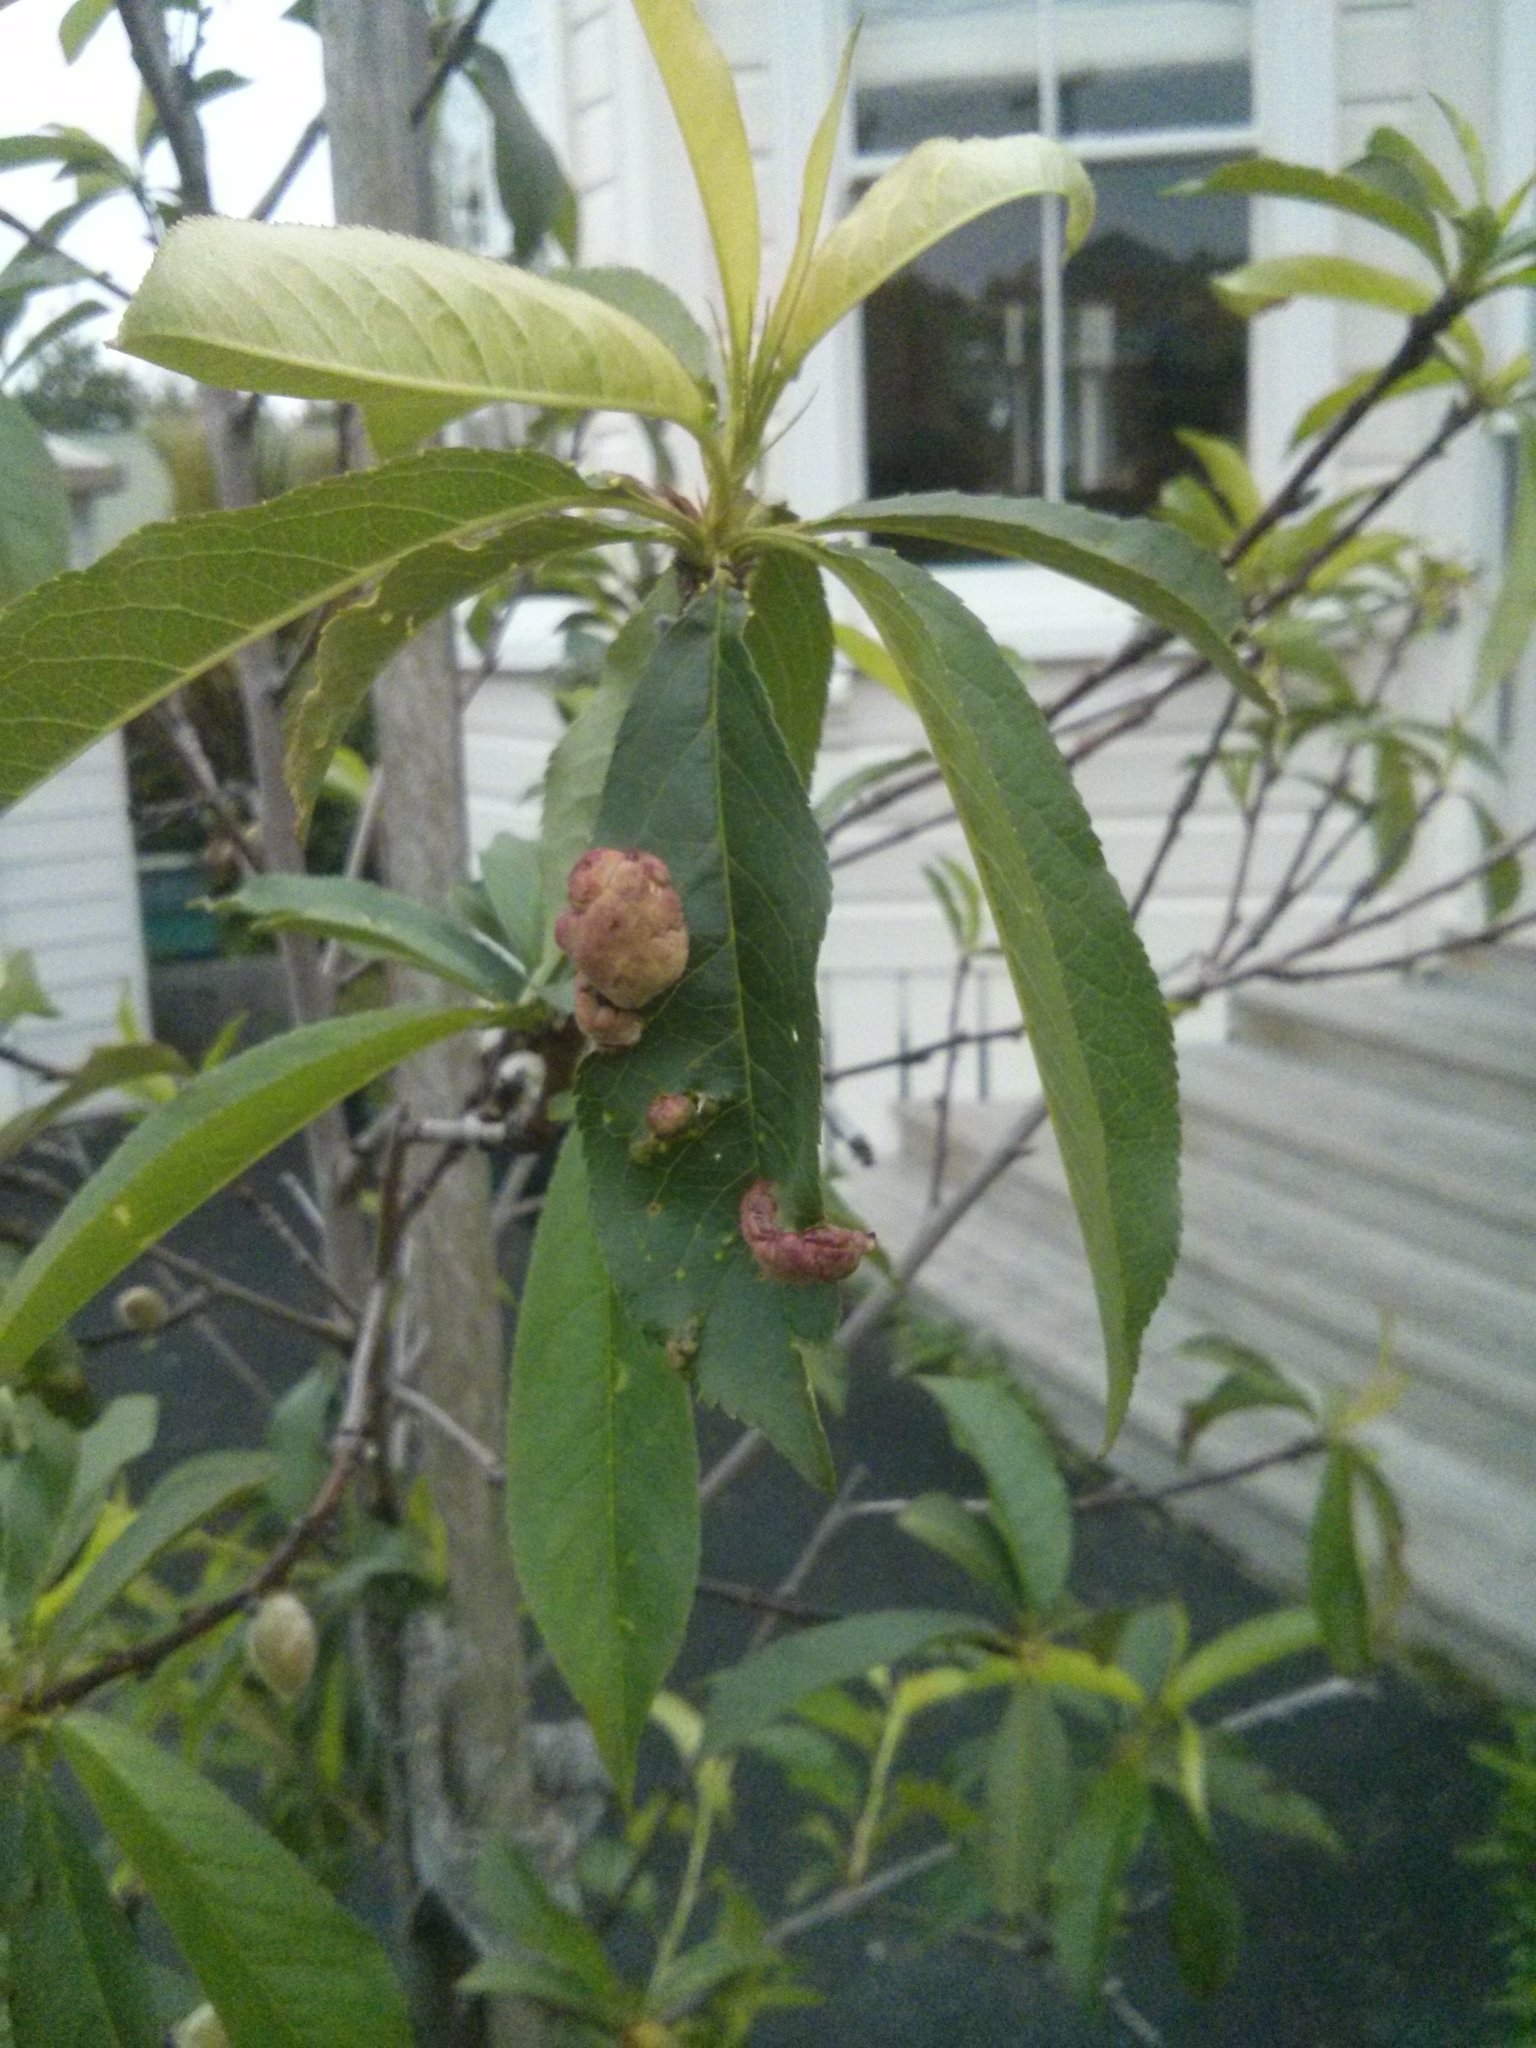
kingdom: Fungi
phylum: Ascomycota
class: Taphrinomycetes
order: Taphrinales
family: Taphrinaceae
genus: Taphrina
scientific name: Taphrina deformans
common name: Peach leaf curl
